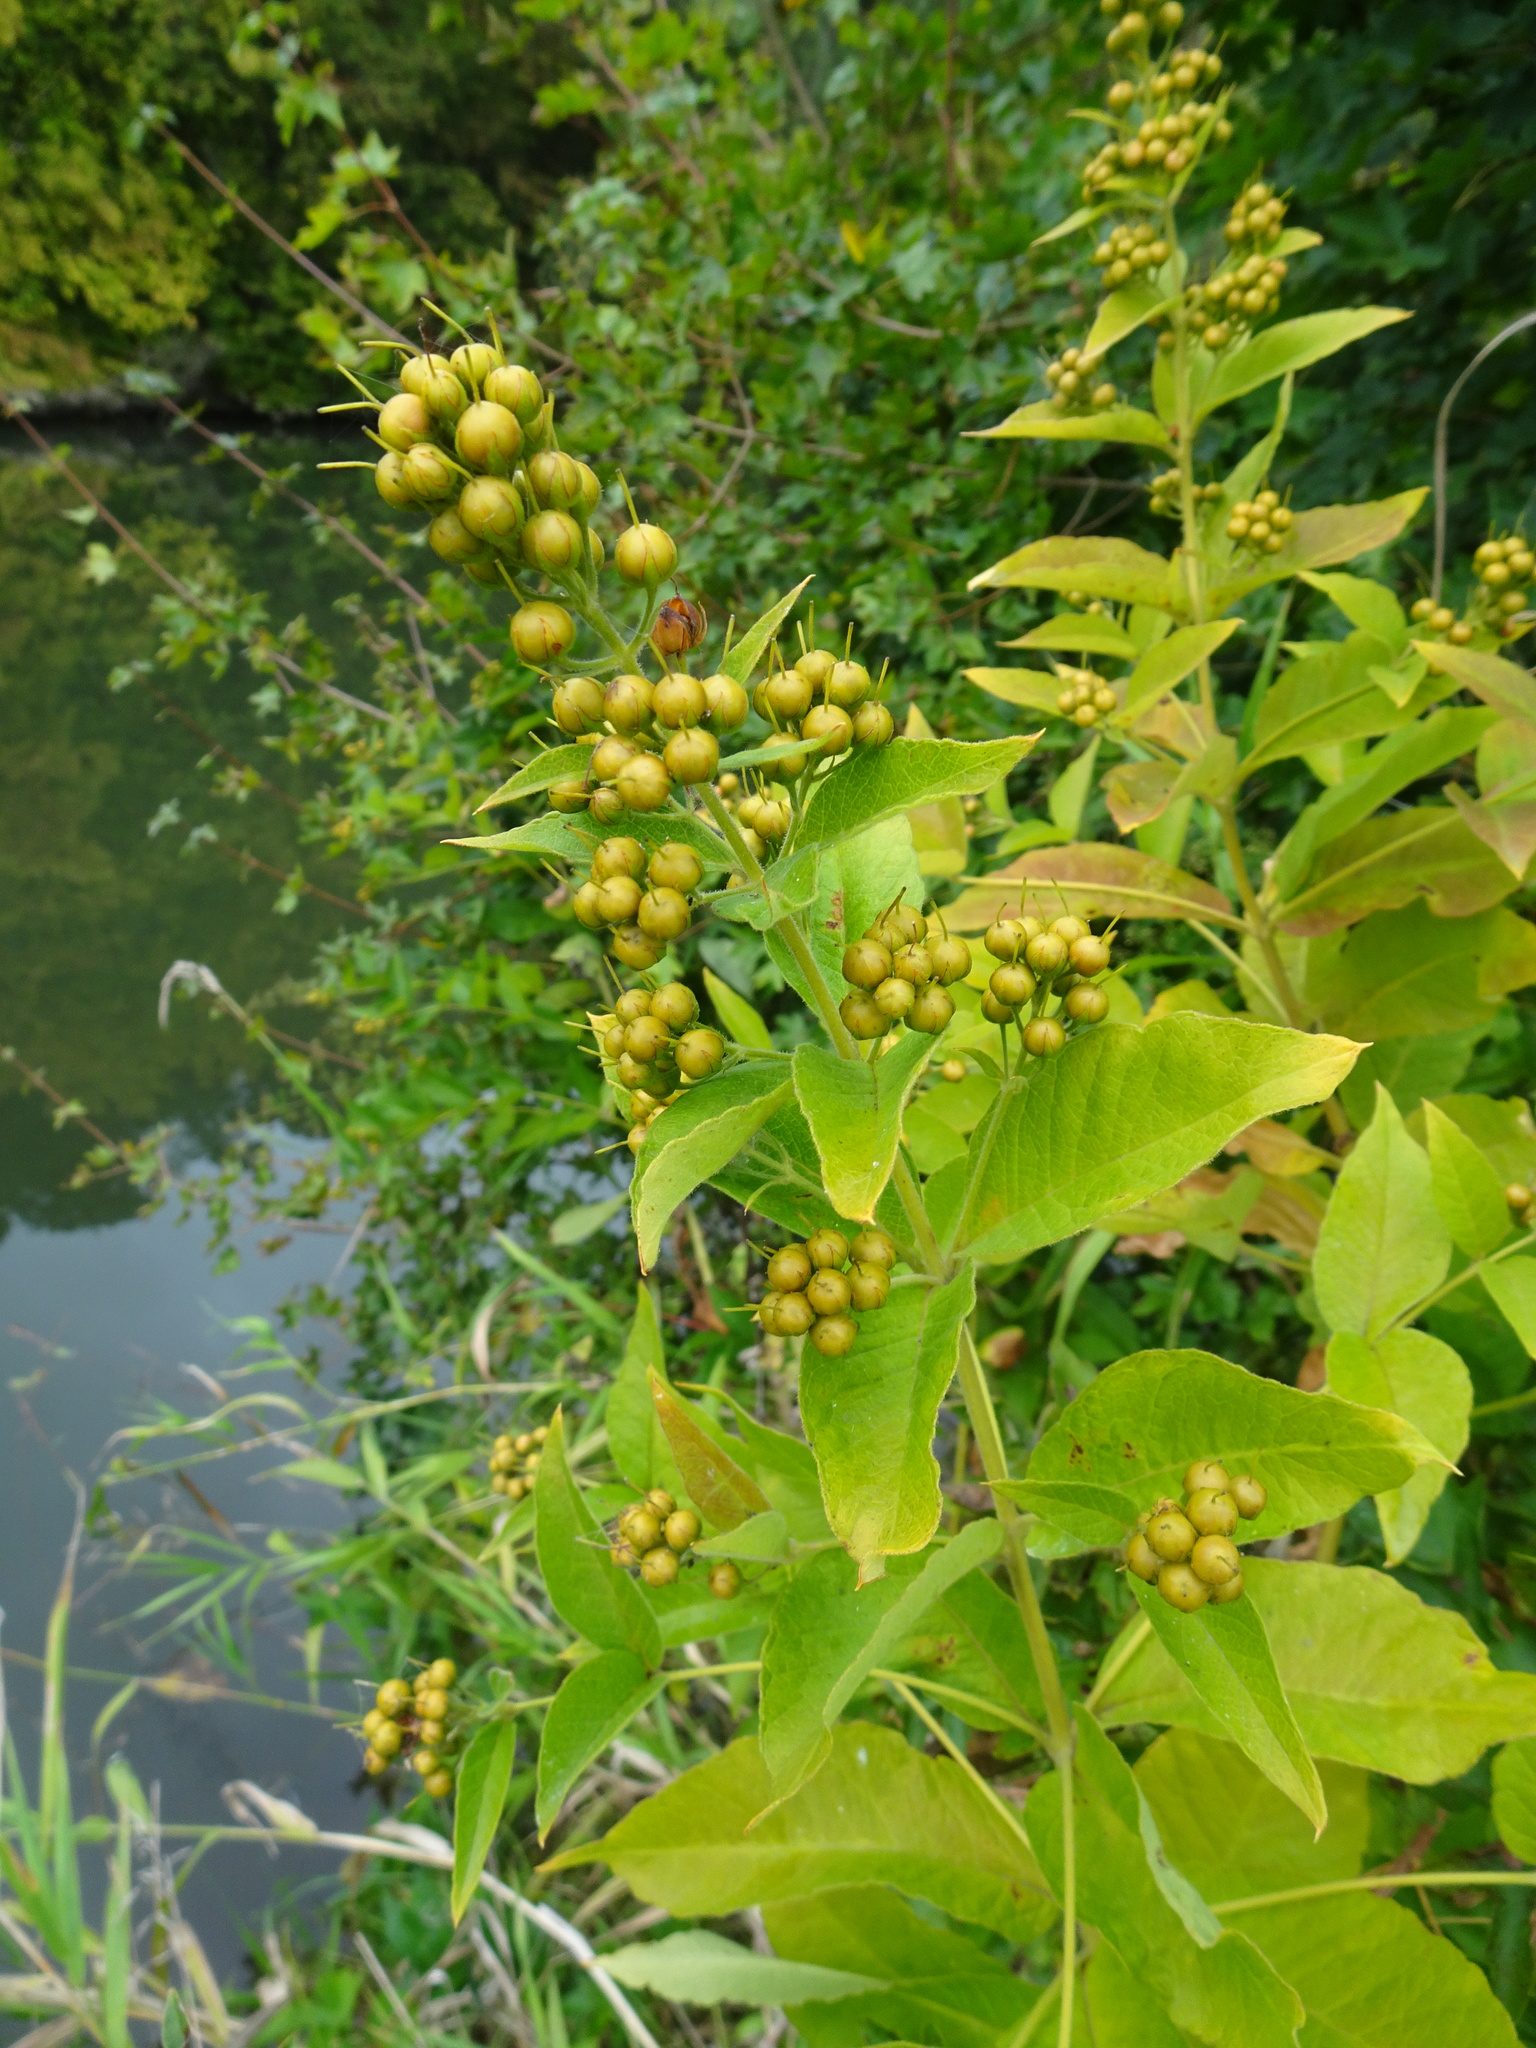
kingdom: Plantae
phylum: Tracheophyta
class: Magnoliopsida
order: Ericales
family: Primulaceae
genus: Lysimachia
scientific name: Lysimachia vulgaris
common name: Yellow loosestrife
